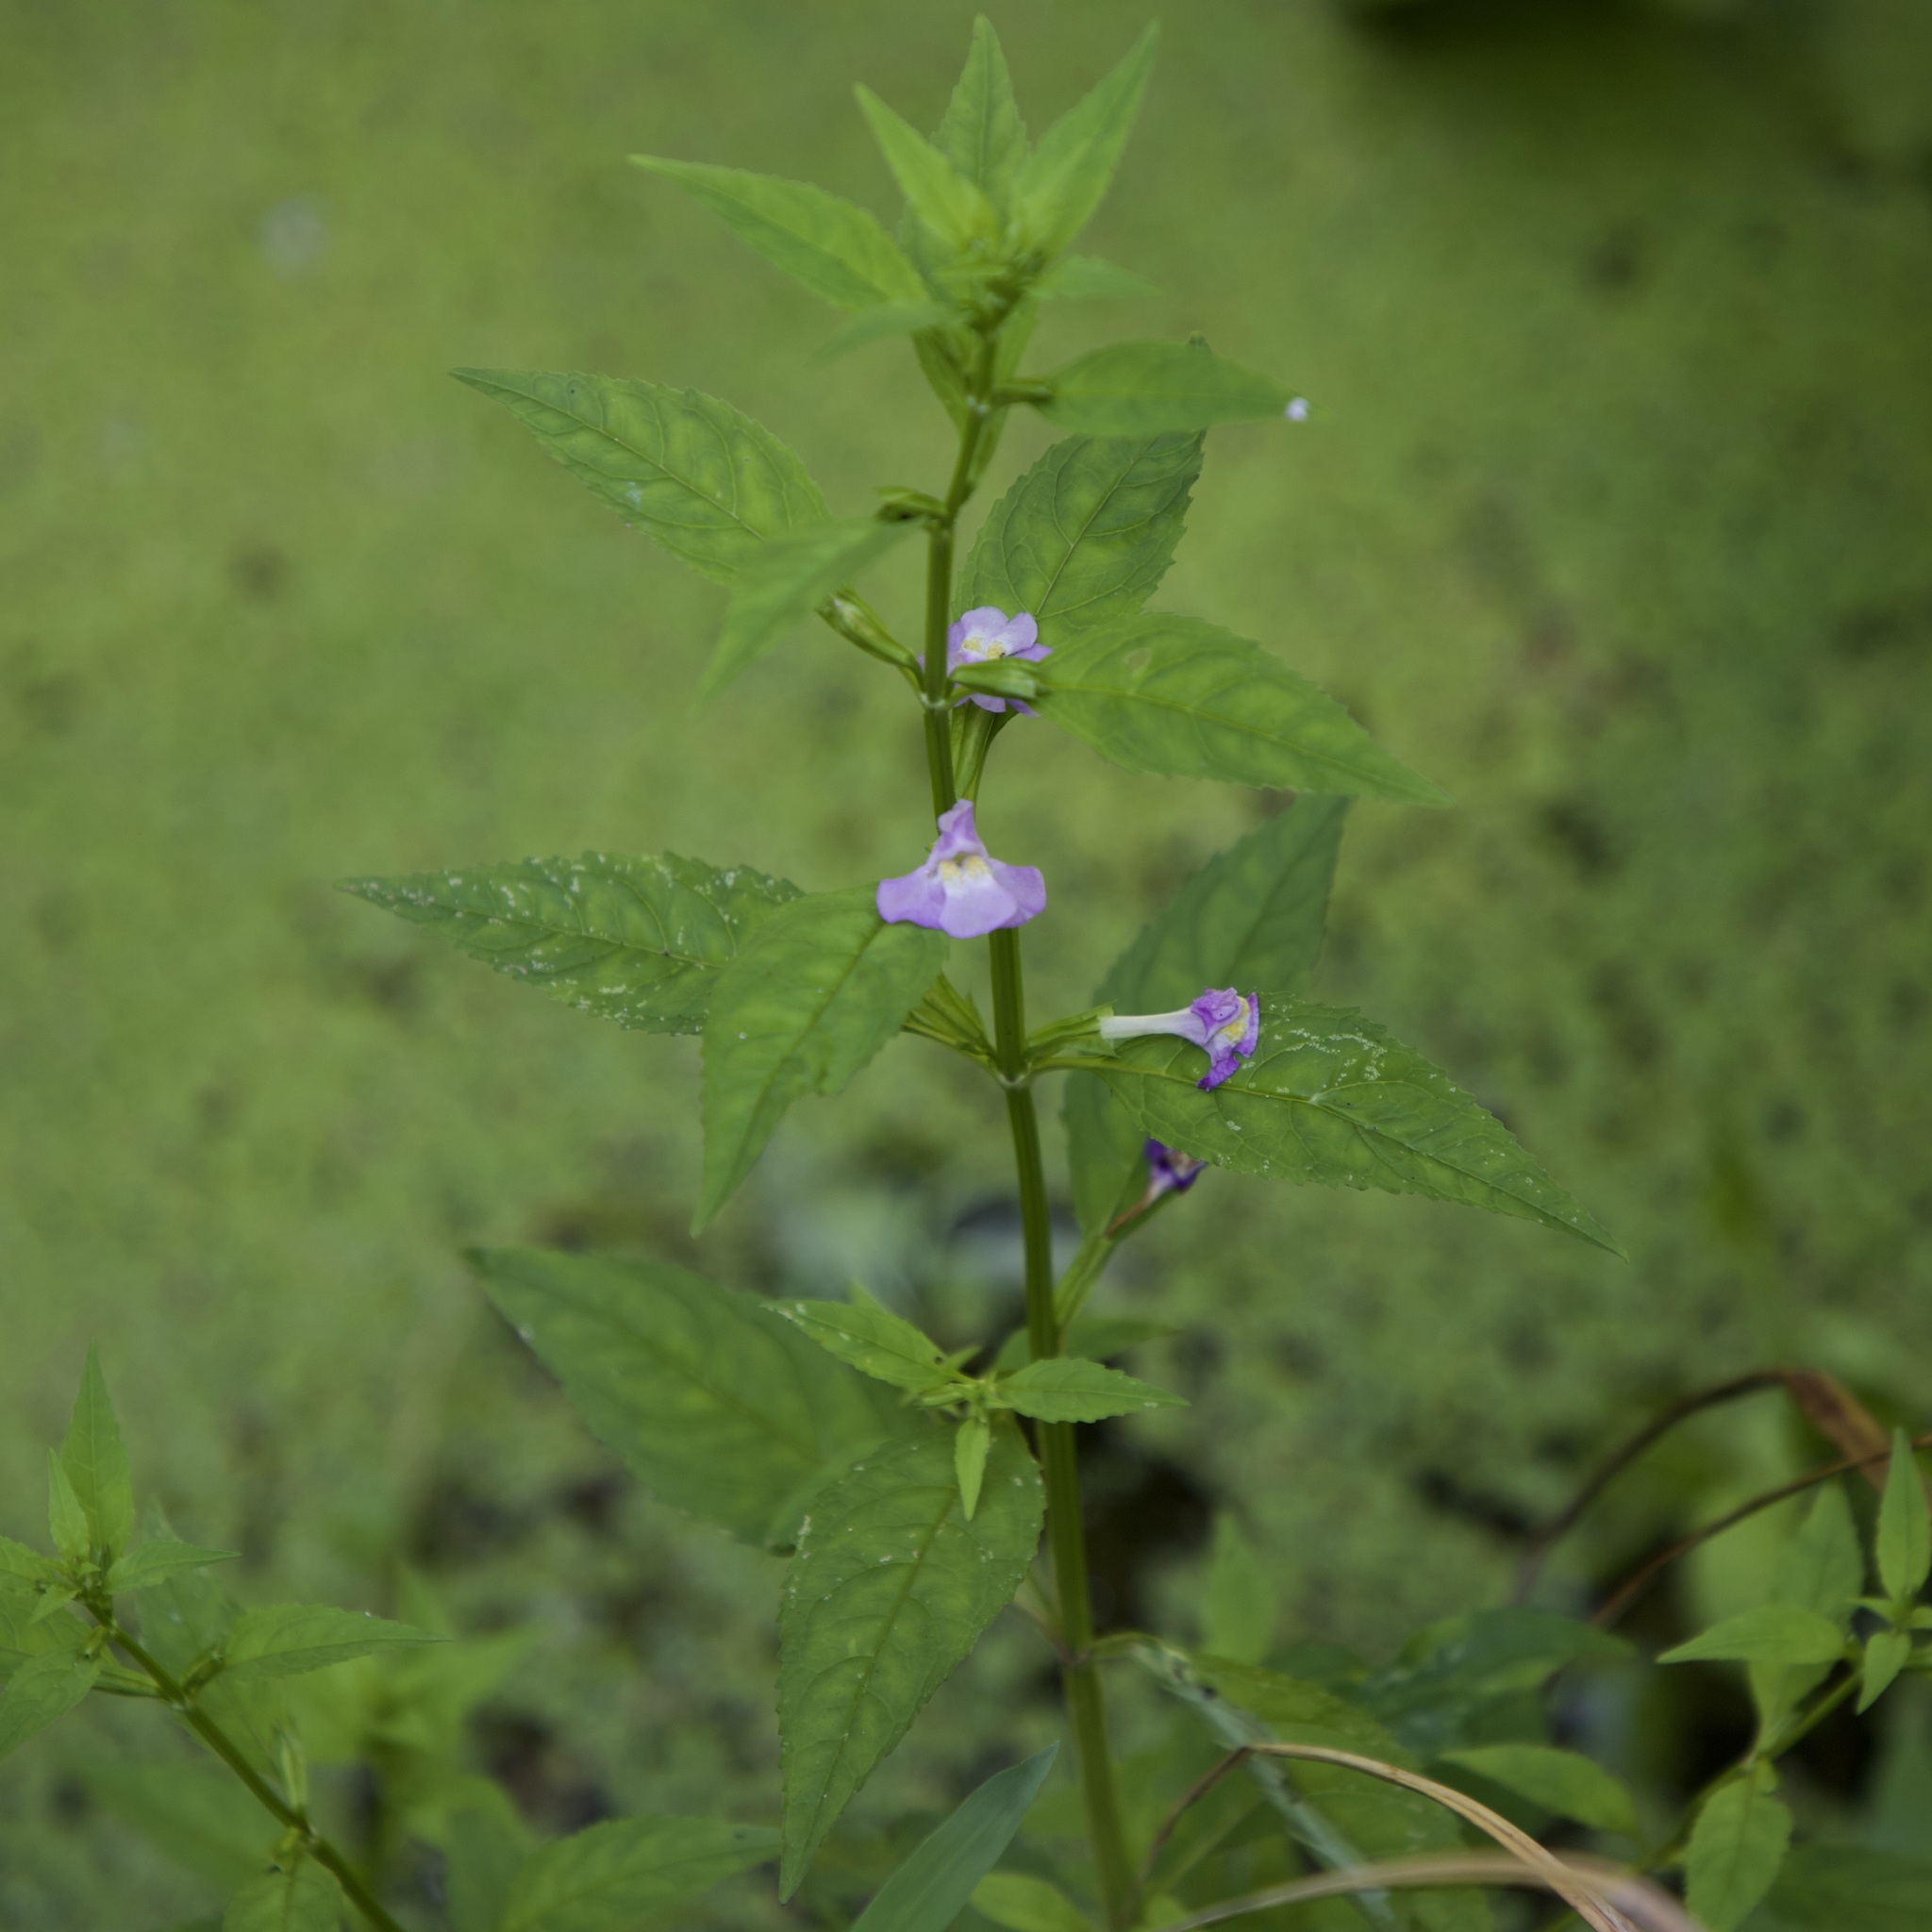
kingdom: Plantae
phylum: Tracheophyta
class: Magnoliopsida
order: Lamiales
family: Phrymaceae
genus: Mimulus
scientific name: Mimulus alatus
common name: Sharp-wing monkey-flower
